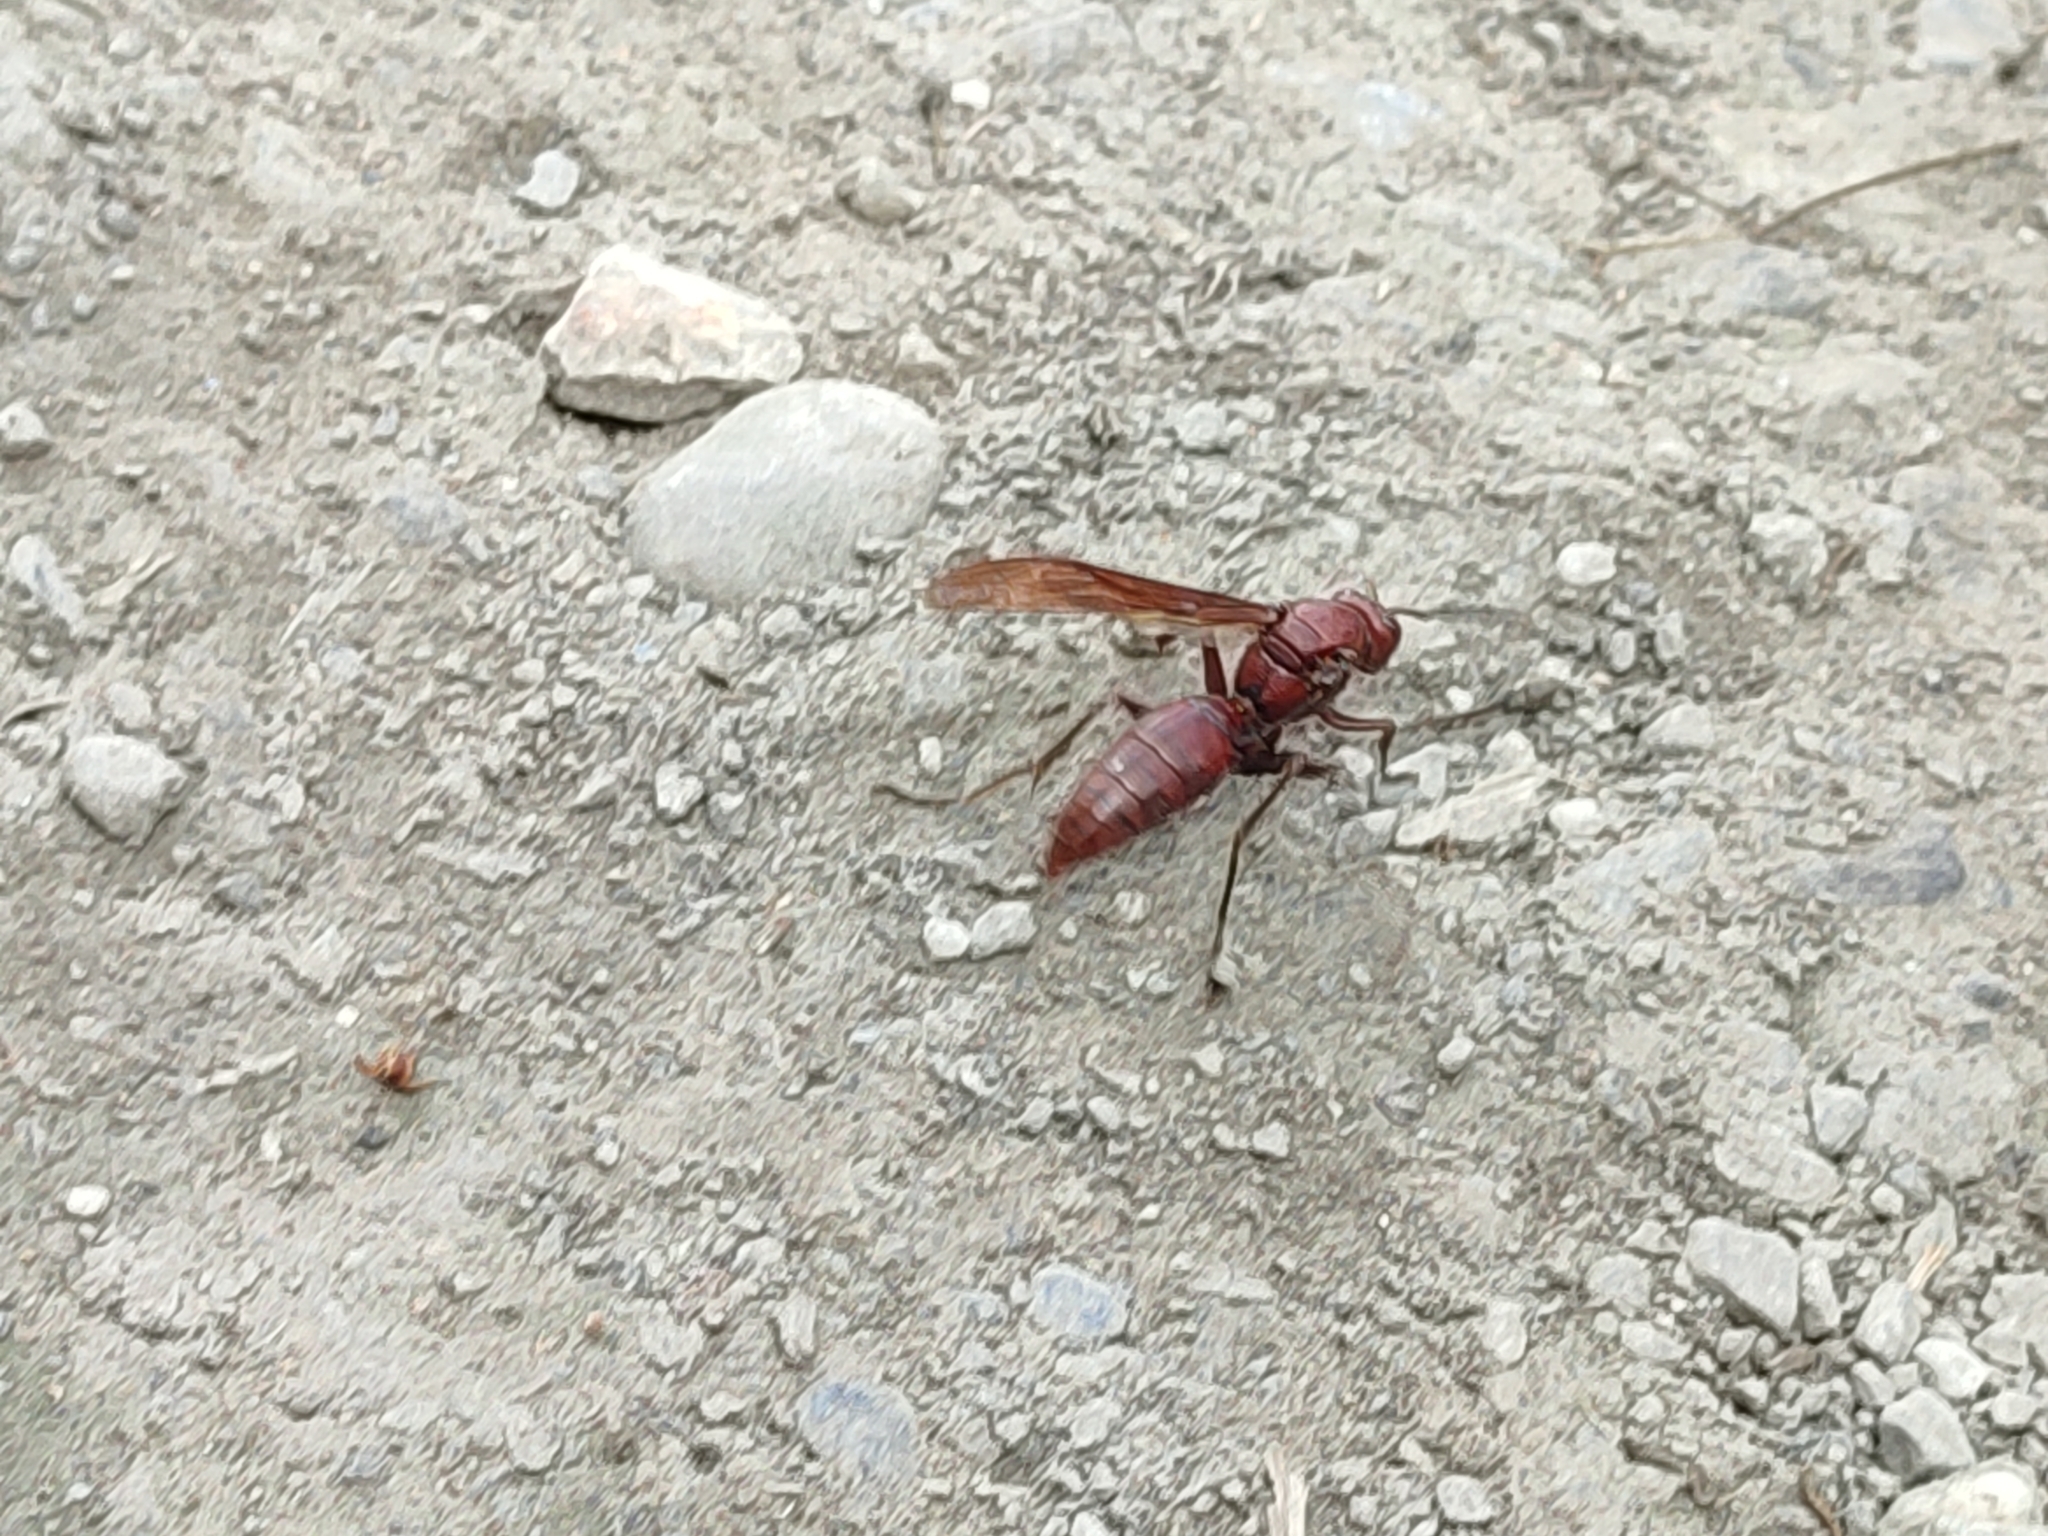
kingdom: Animalia
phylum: Arthropoda
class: Insecta
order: Hymenoptera
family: Eumenidae
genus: Polistes
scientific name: Polistes gigas
